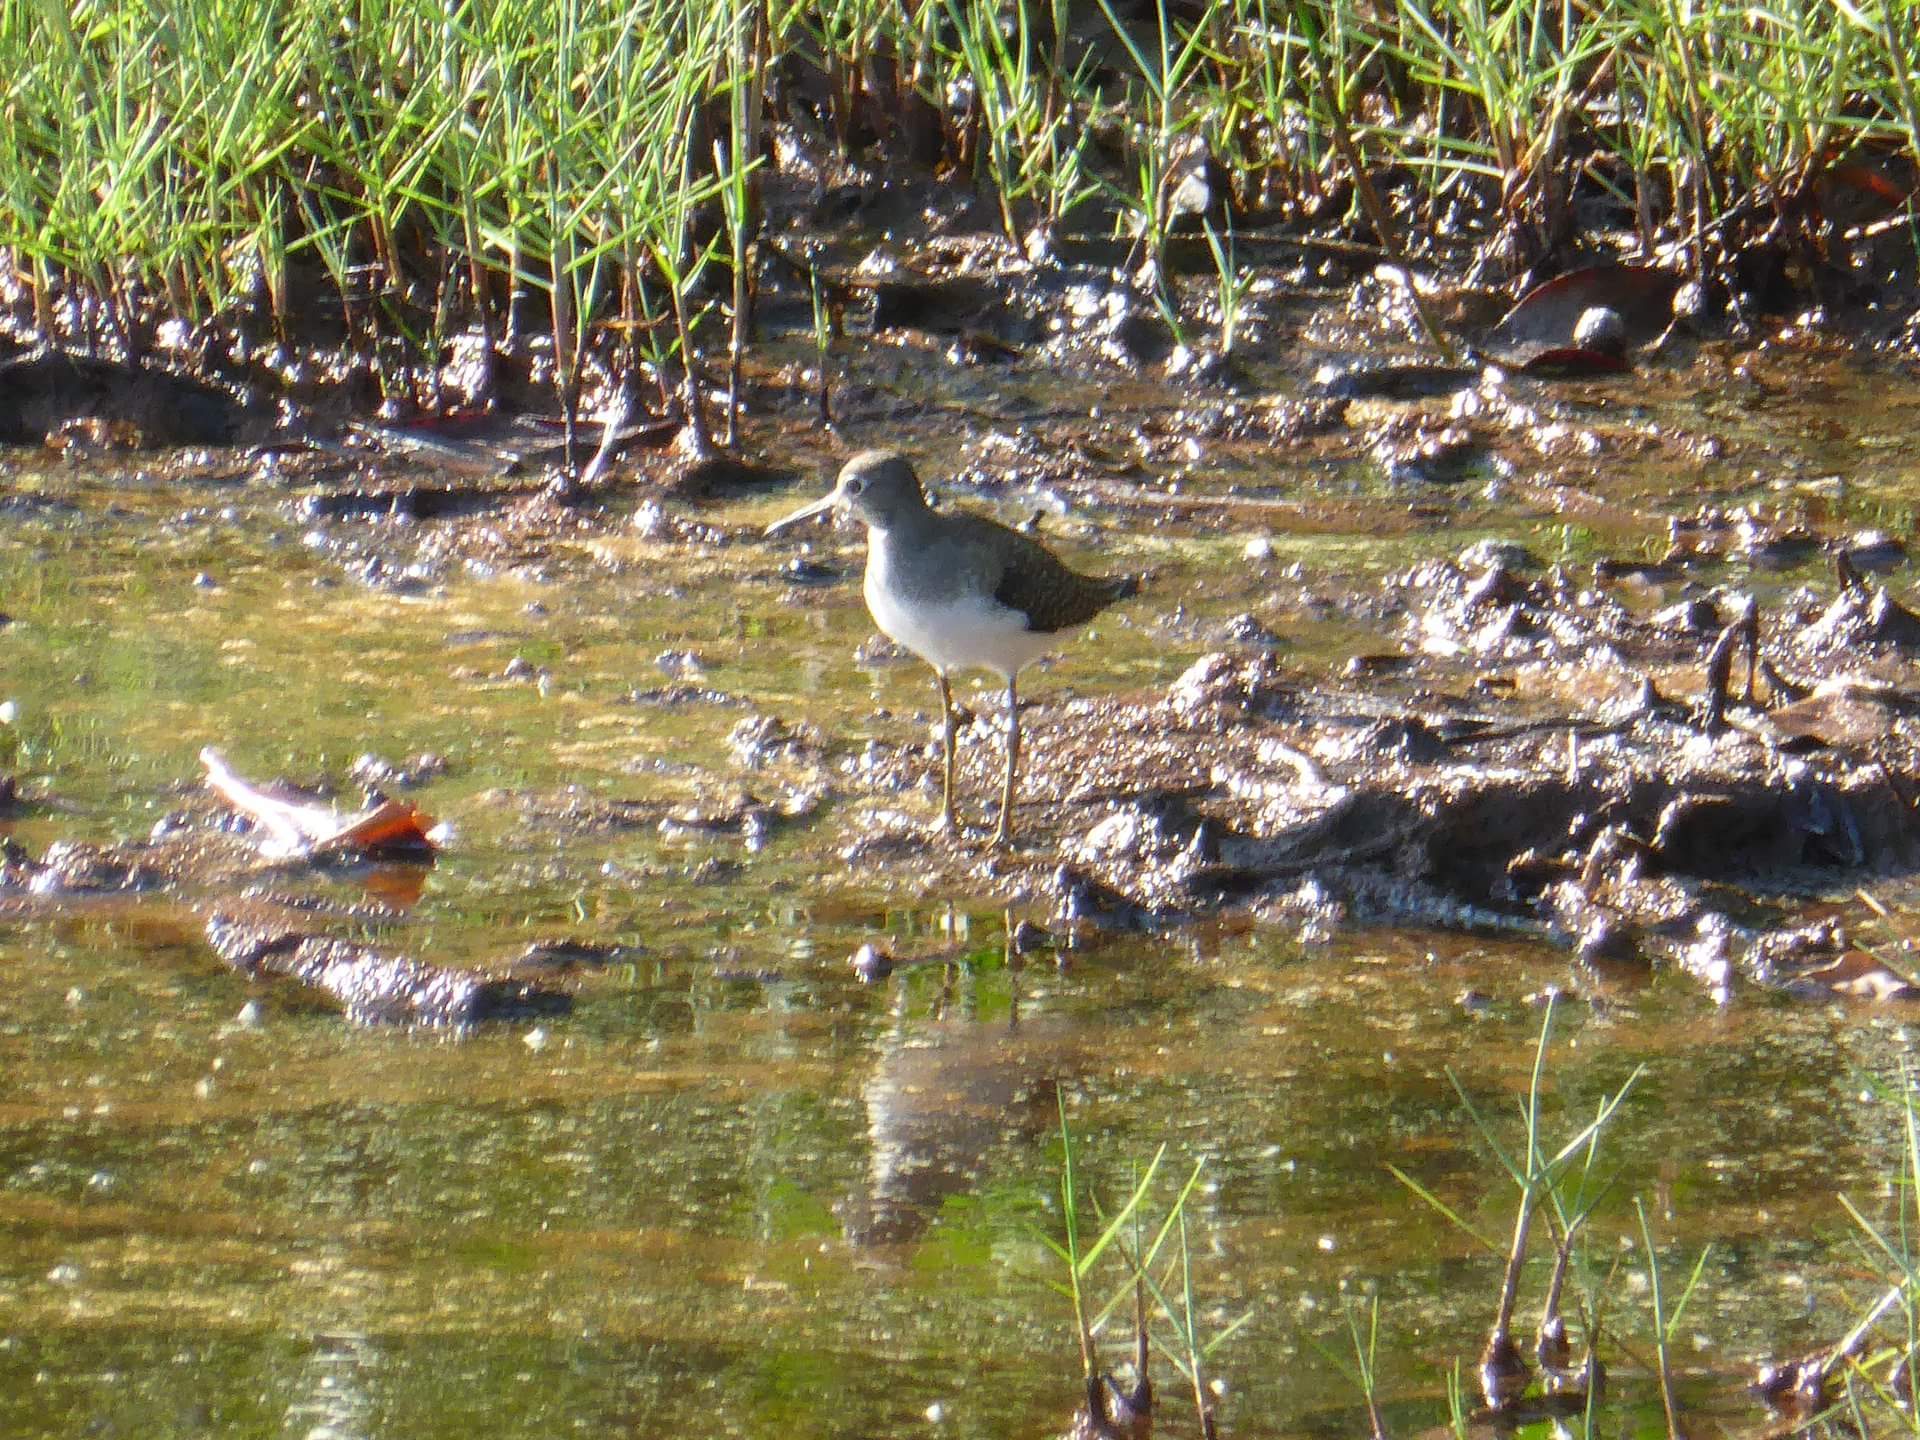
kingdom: Animalia
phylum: Chordata
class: Aves
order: Charadriiformes
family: Scolopacidae
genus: Tringa
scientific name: Tringa solitaria
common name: Solitary sandpiper
